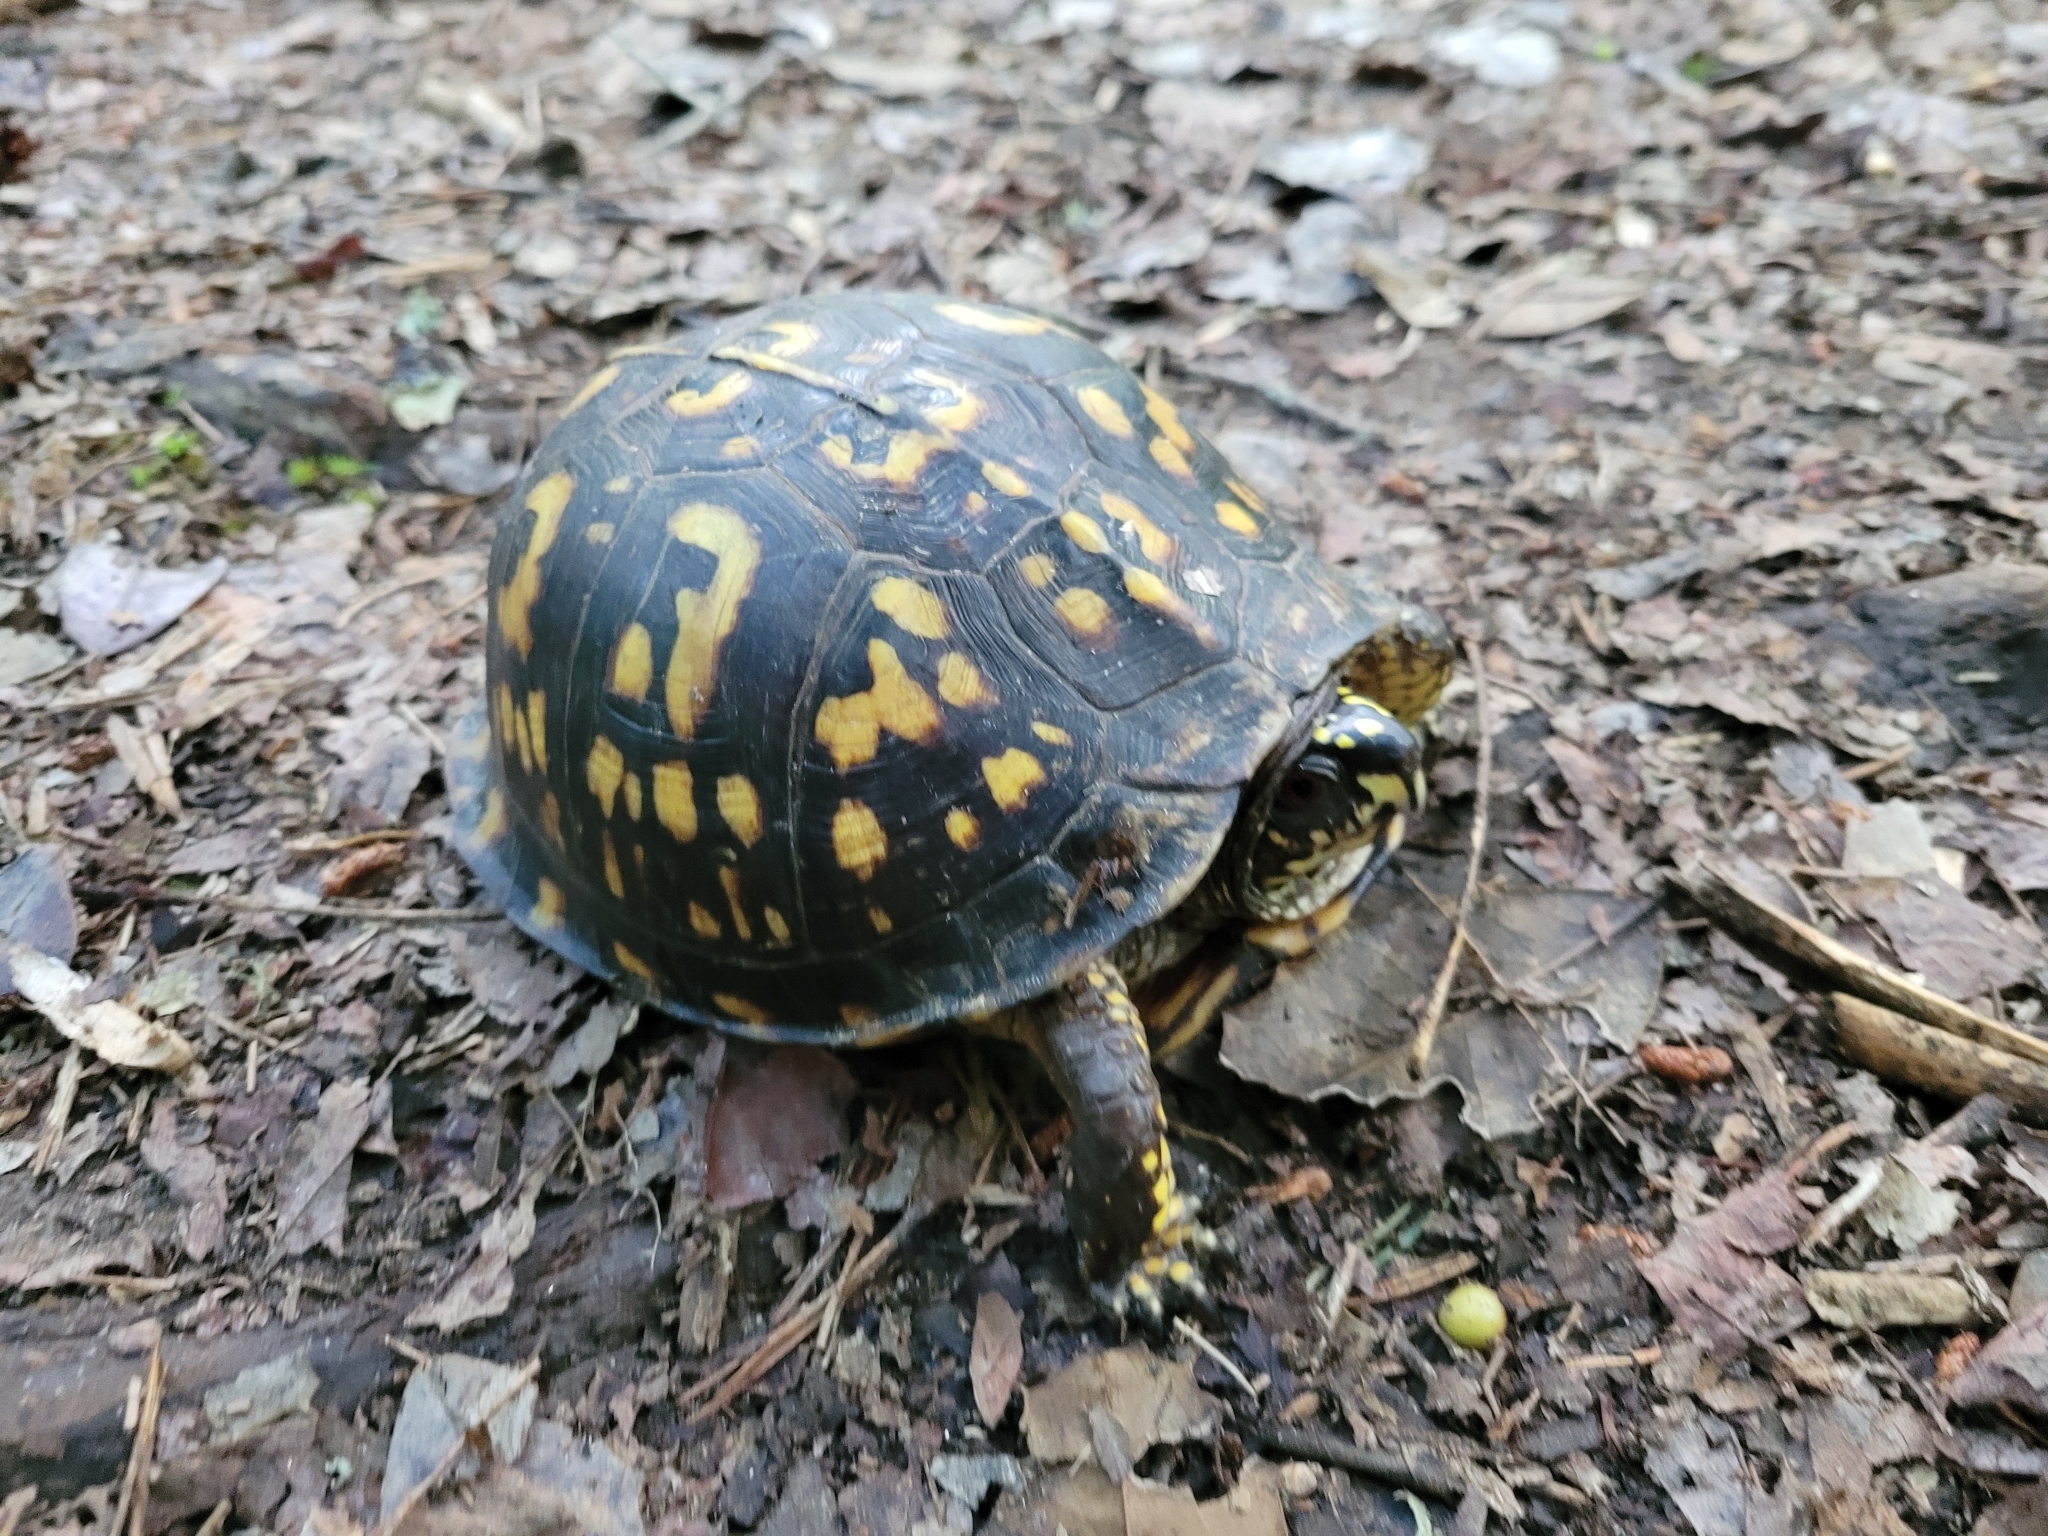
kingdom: Animalia
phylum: Chordata
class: Testudines
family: Emydidae
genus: Terrapene
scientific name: Terrapene carolina
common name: Common box turtle
